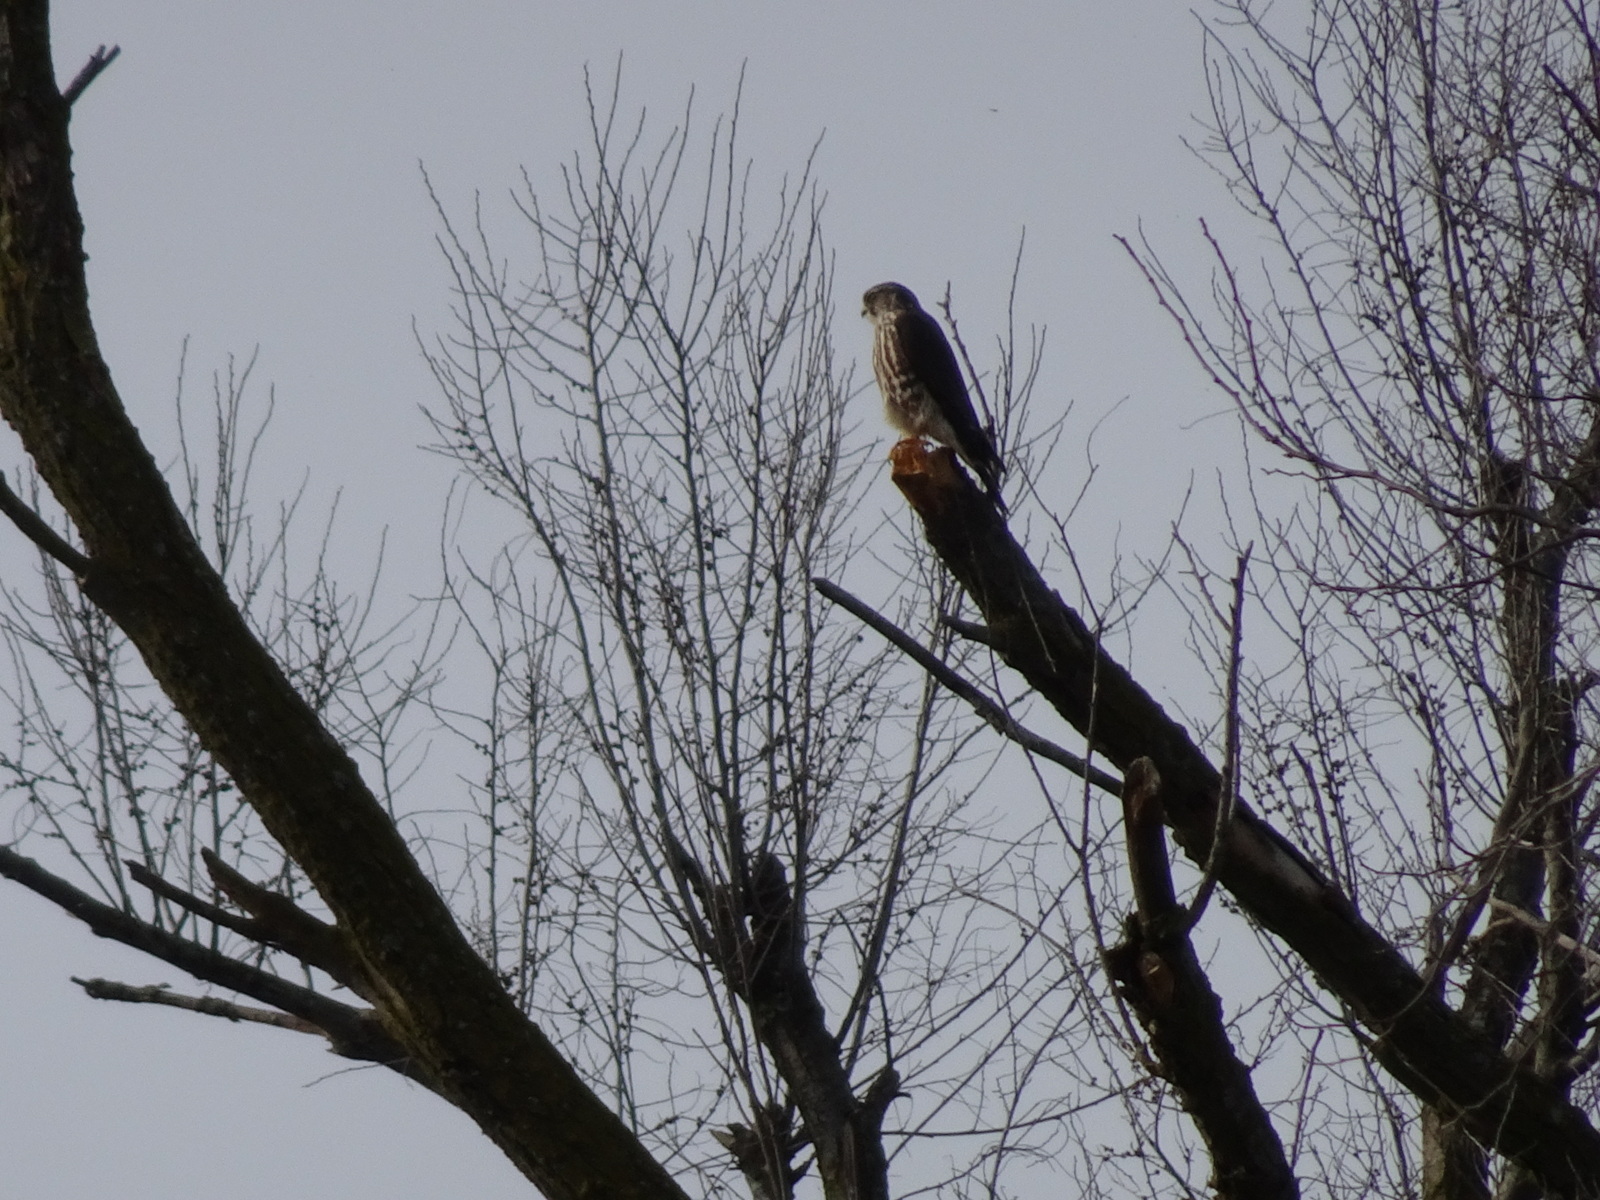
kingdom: Animalia
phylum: Chordata
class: Aves
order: Falconiformes
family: Falconidae
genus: Falco
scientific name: Falco columbarius
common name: Merlin
